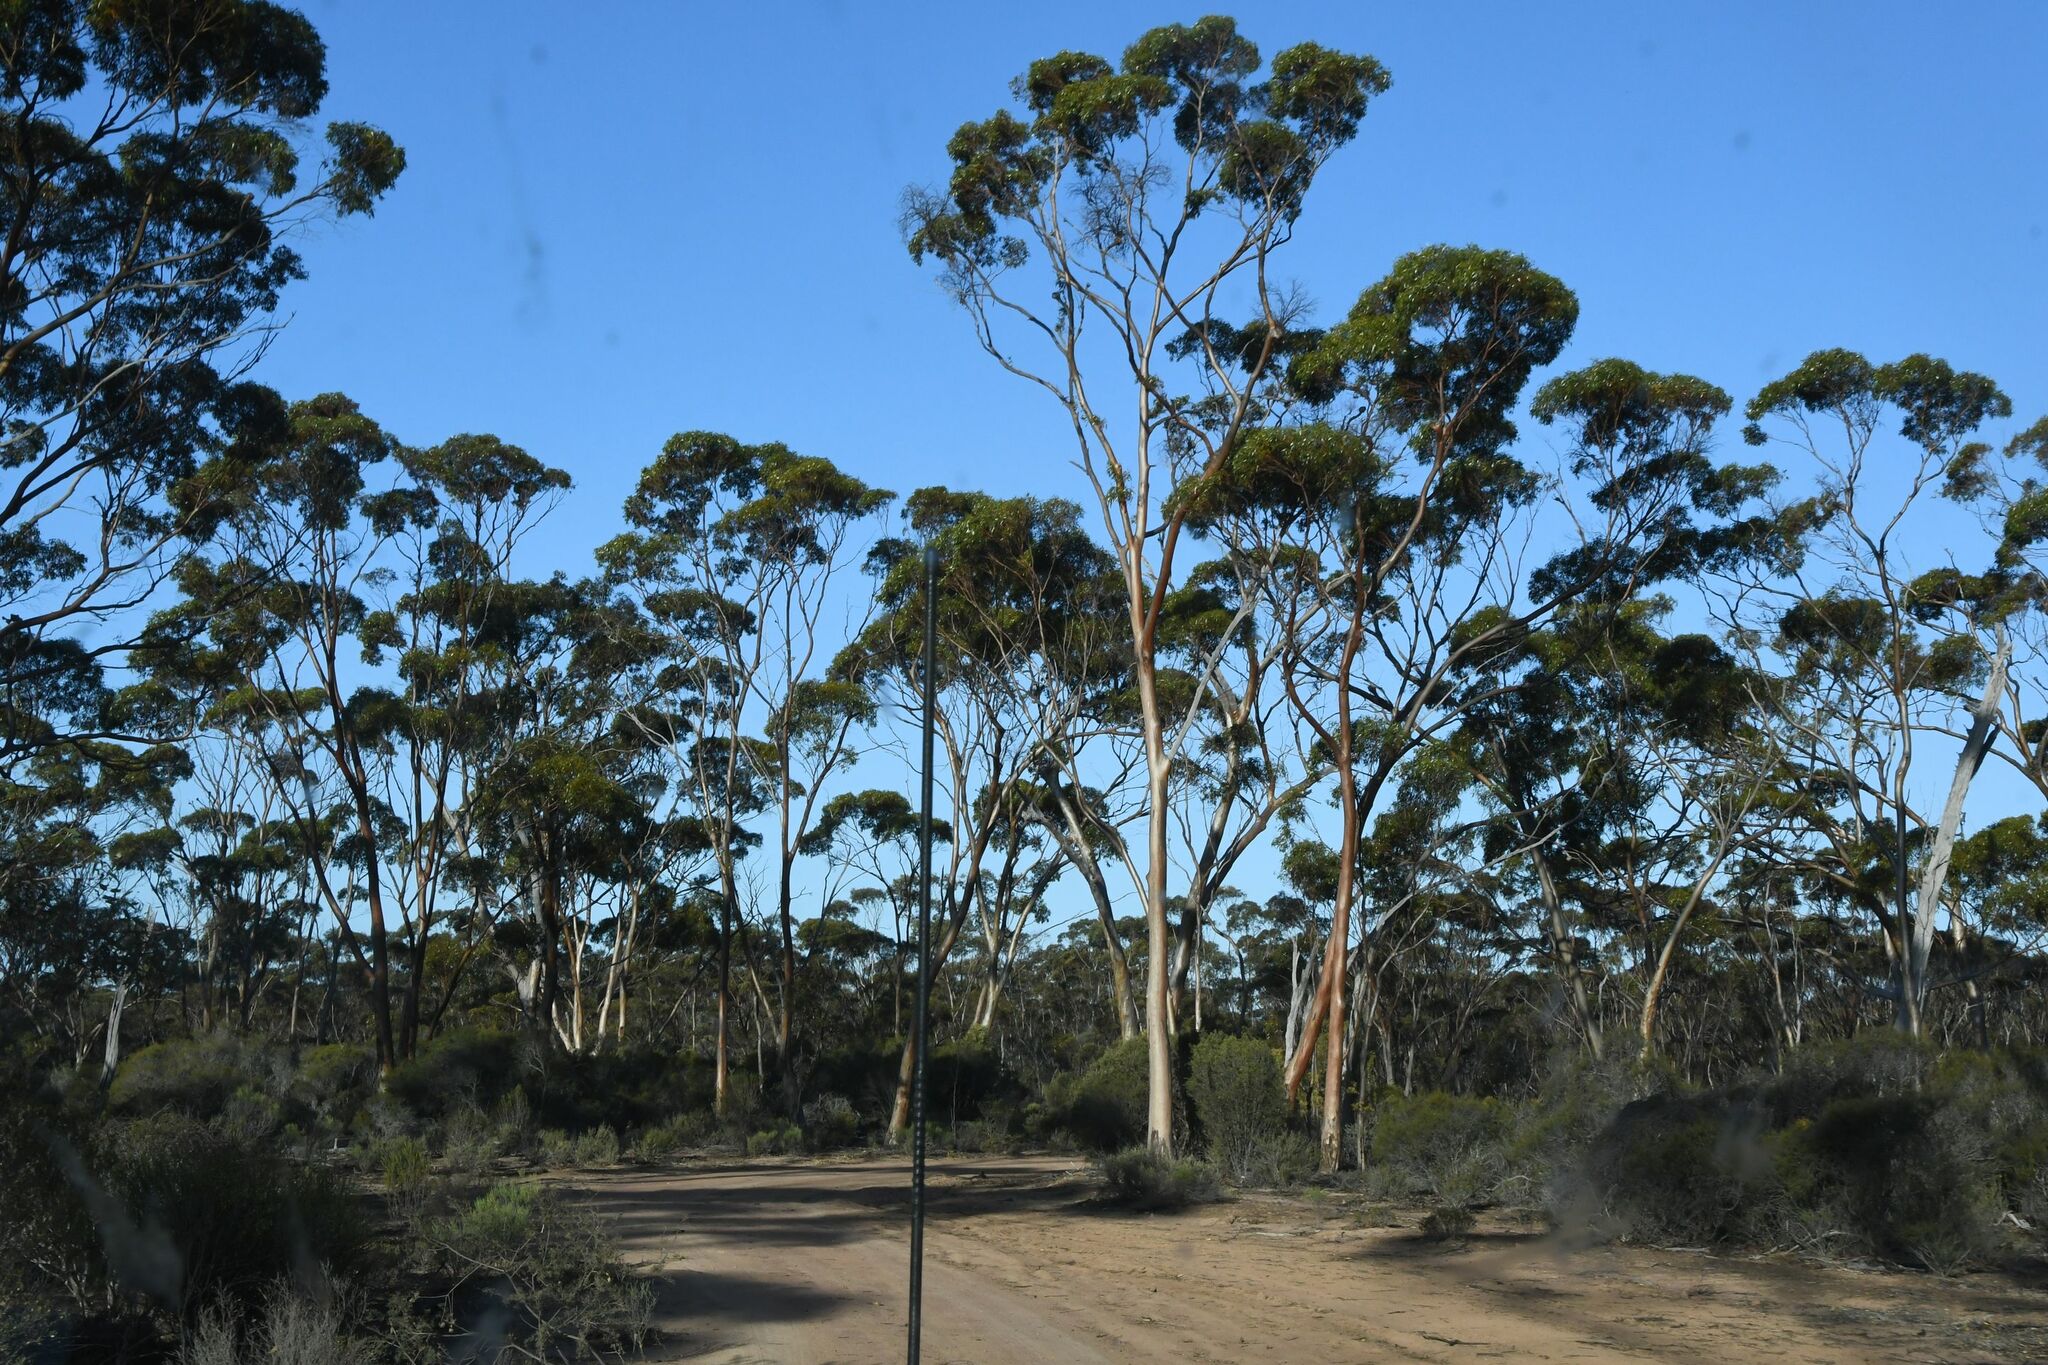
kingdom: Plantae
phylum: Tracheophyta
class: Magnoliopsida
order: Myrtales
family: Myrtaceae
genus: Eucalyptus
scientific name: Eucalyptus salmonophloia
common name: Salmon gum
